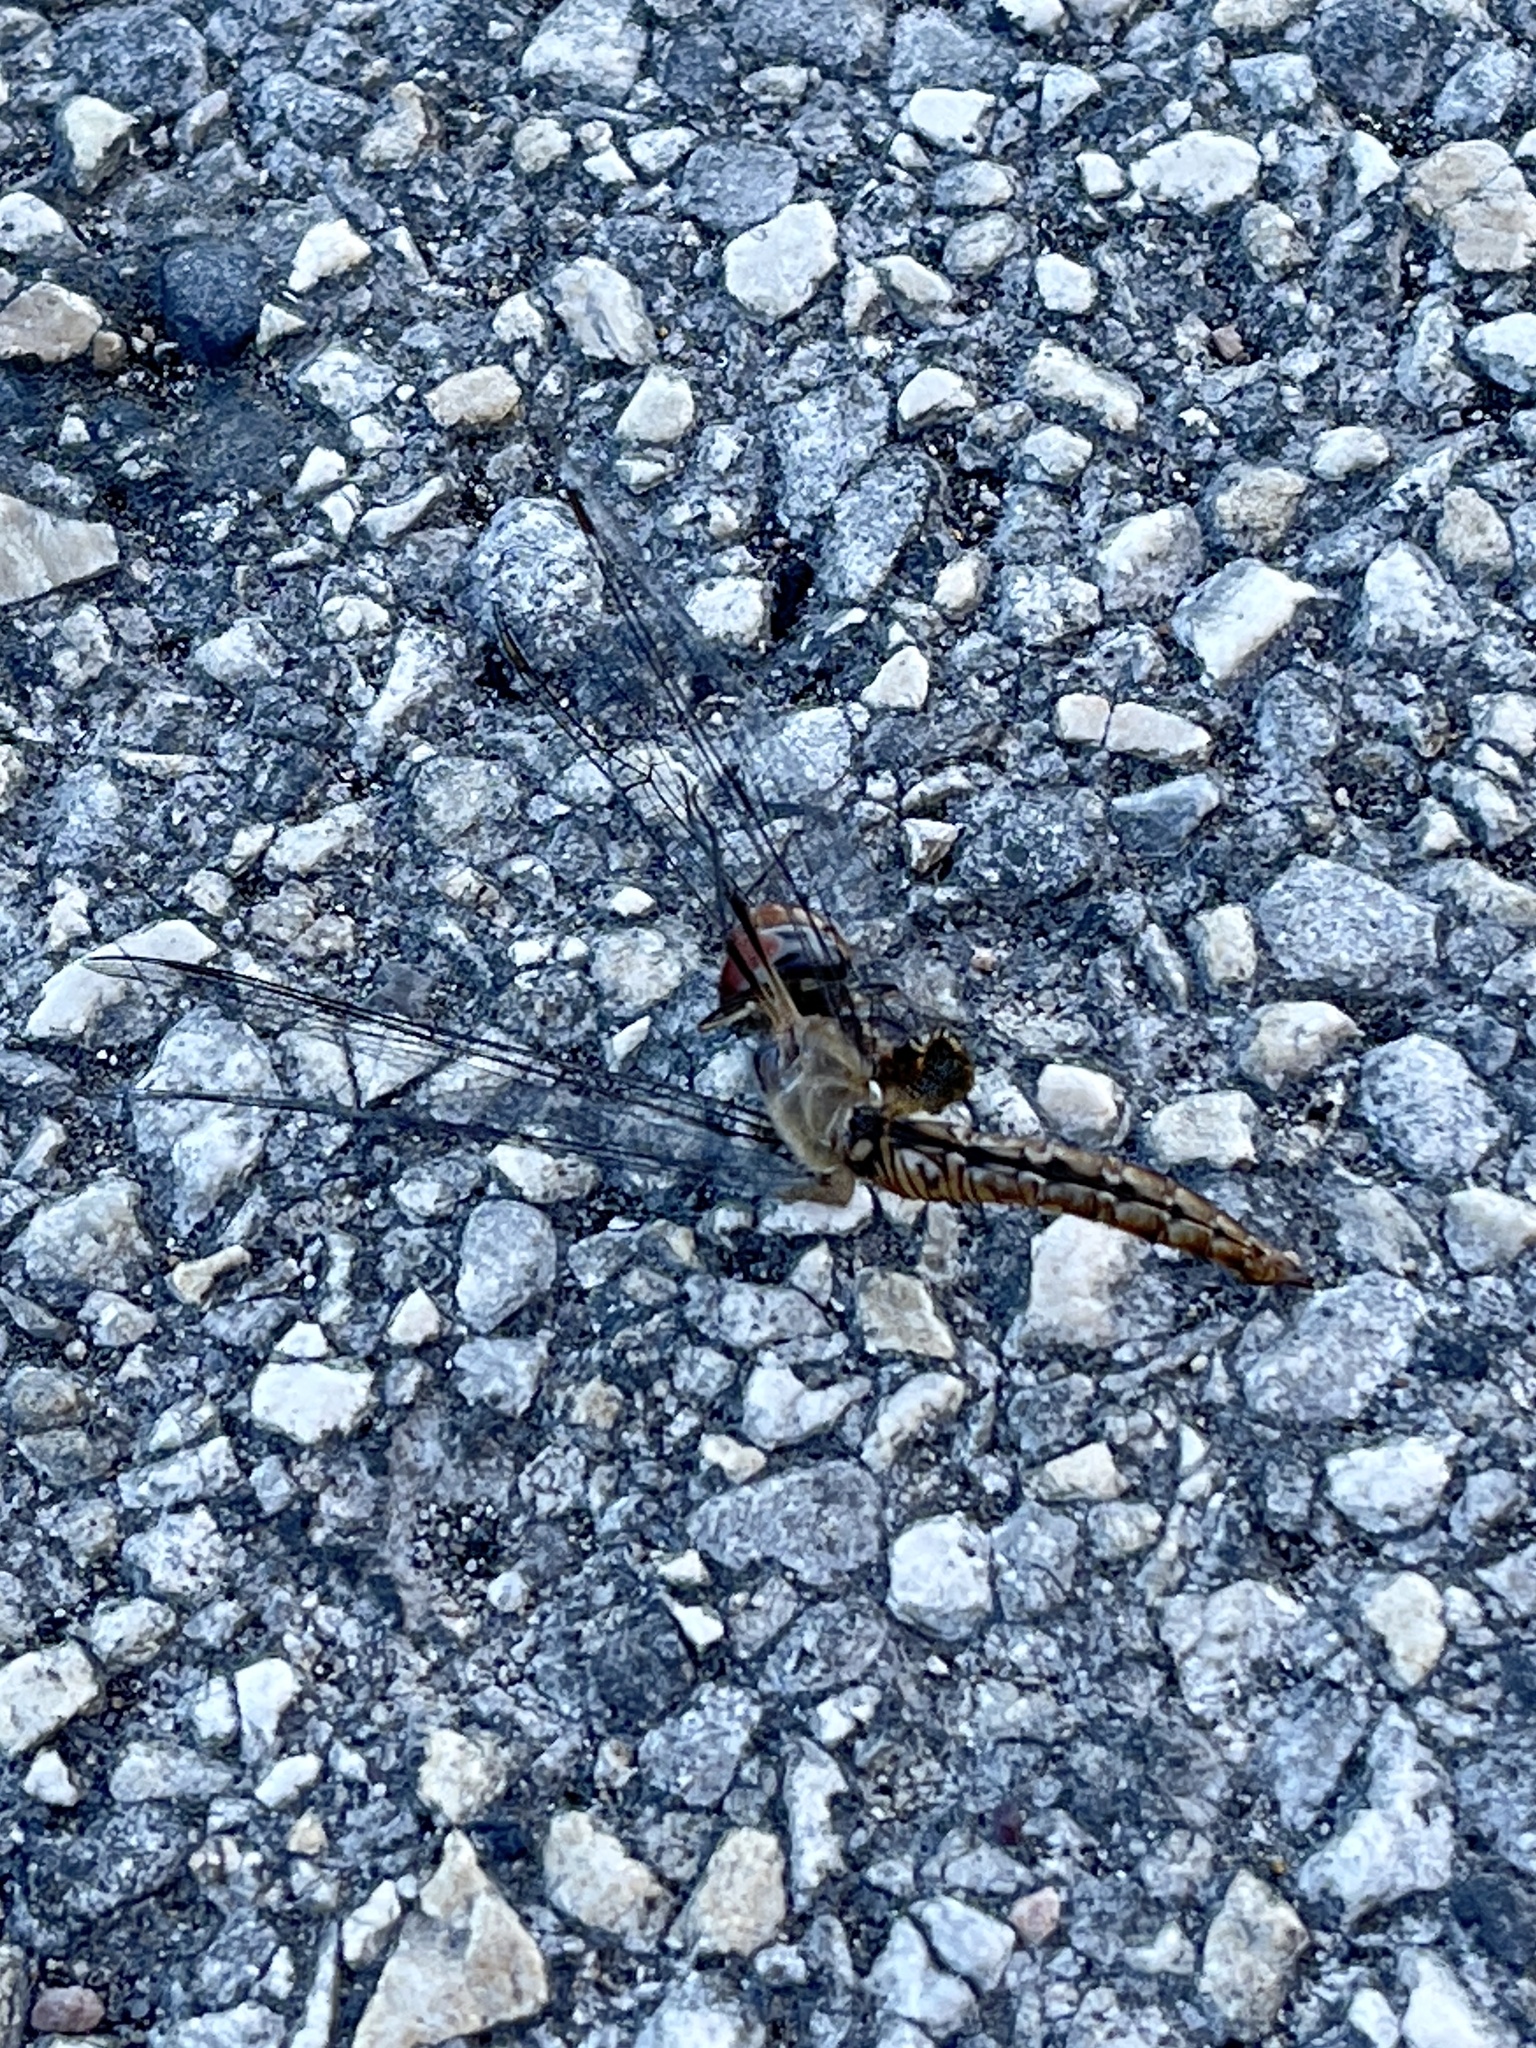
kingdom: Animalia
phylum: Arthropoda
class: Insecta
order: Odonata
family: Libellulidae
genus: Pantala
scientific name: Pantala hymenaea
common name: Spot-winged glider
